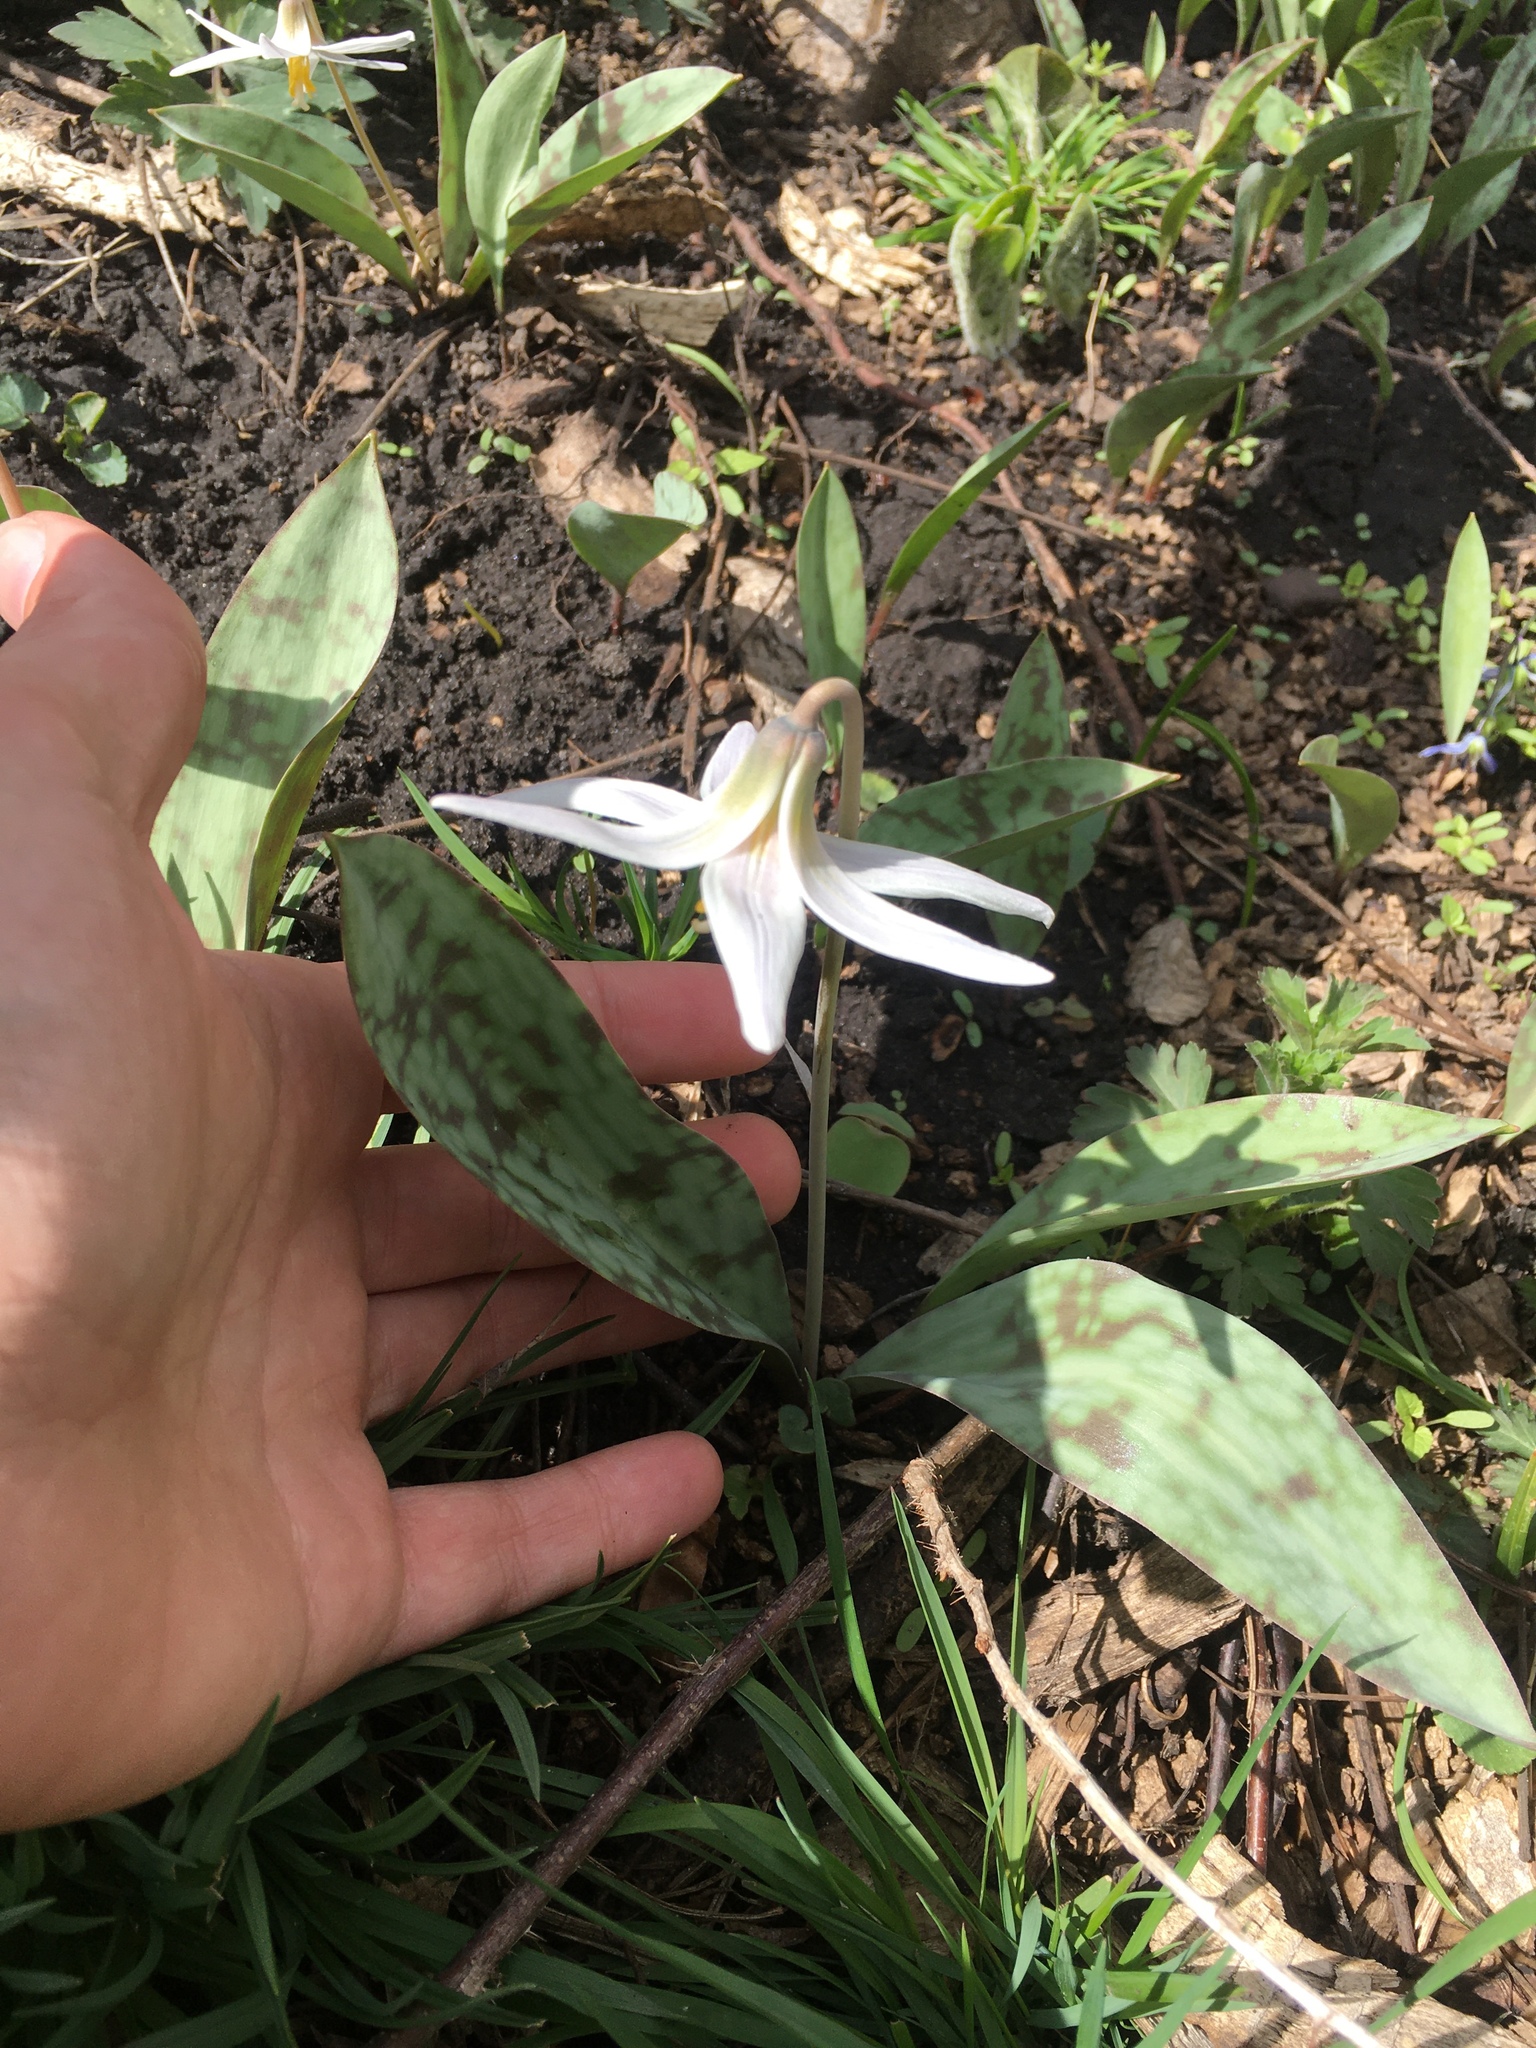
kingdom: Plantae
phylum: Tracheophyta
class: Liliopsida
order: Liliales
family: Liliaceae
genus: Erythronium
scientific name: Erythronium albidum
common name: White trout-lily
